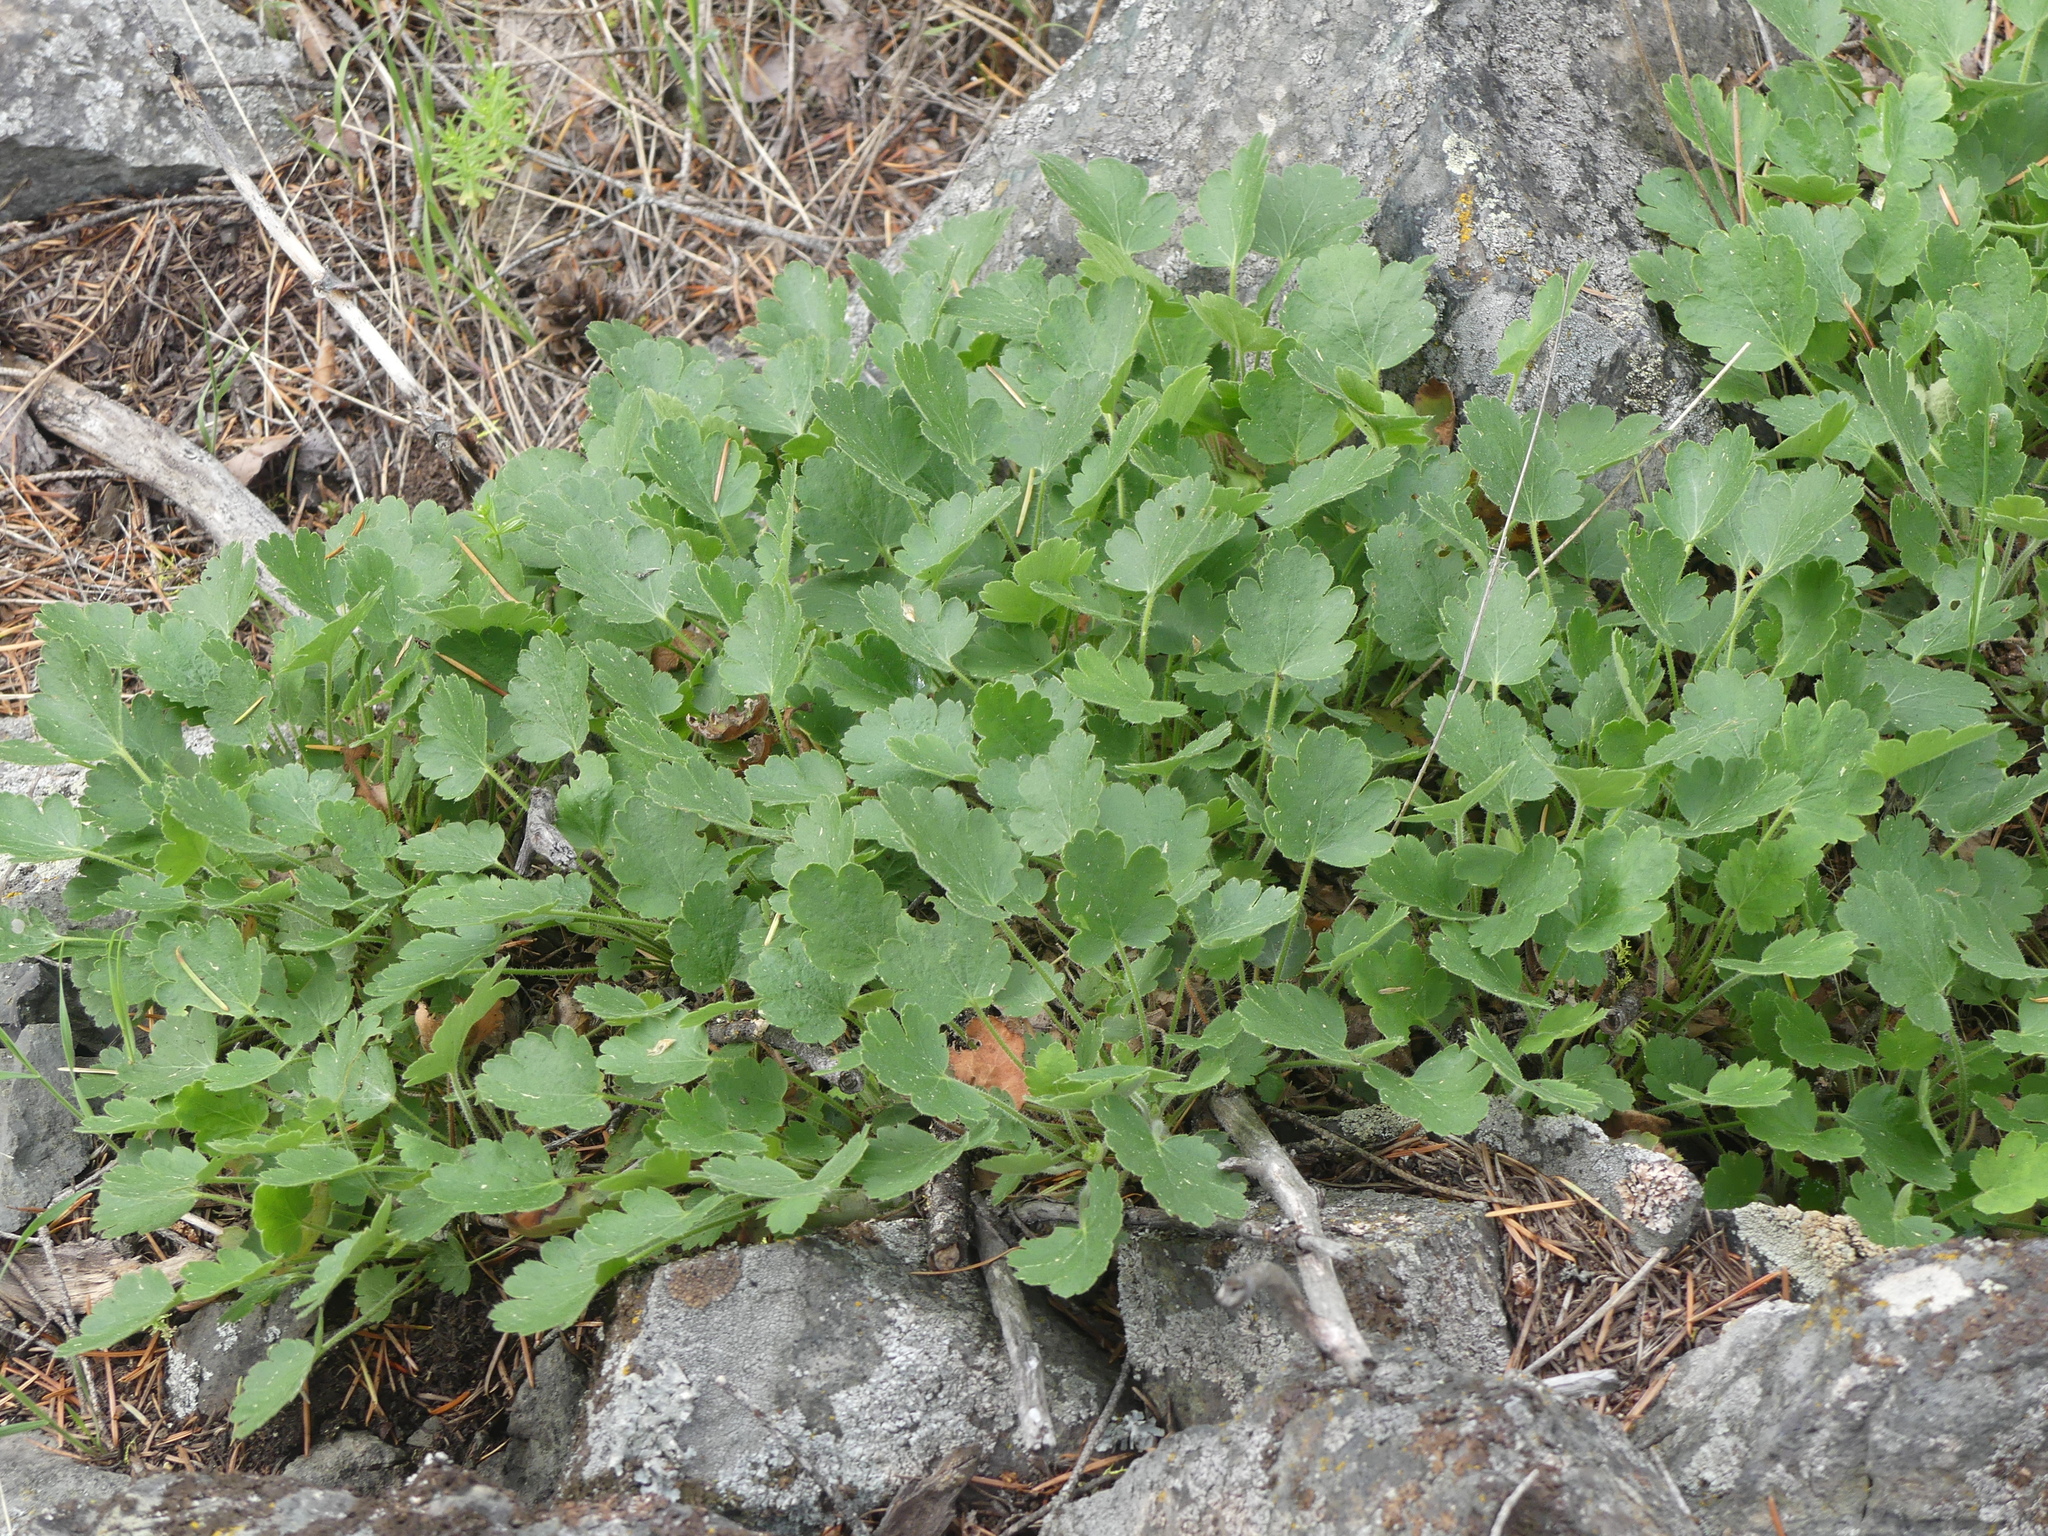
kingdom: Plantae
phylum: Tracheophyta
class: Magnoliopsida
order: Saxifragales
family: Saxifragaceae
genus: Heuchera
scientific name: Heuchera cylindrica
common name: Mat alumroot
